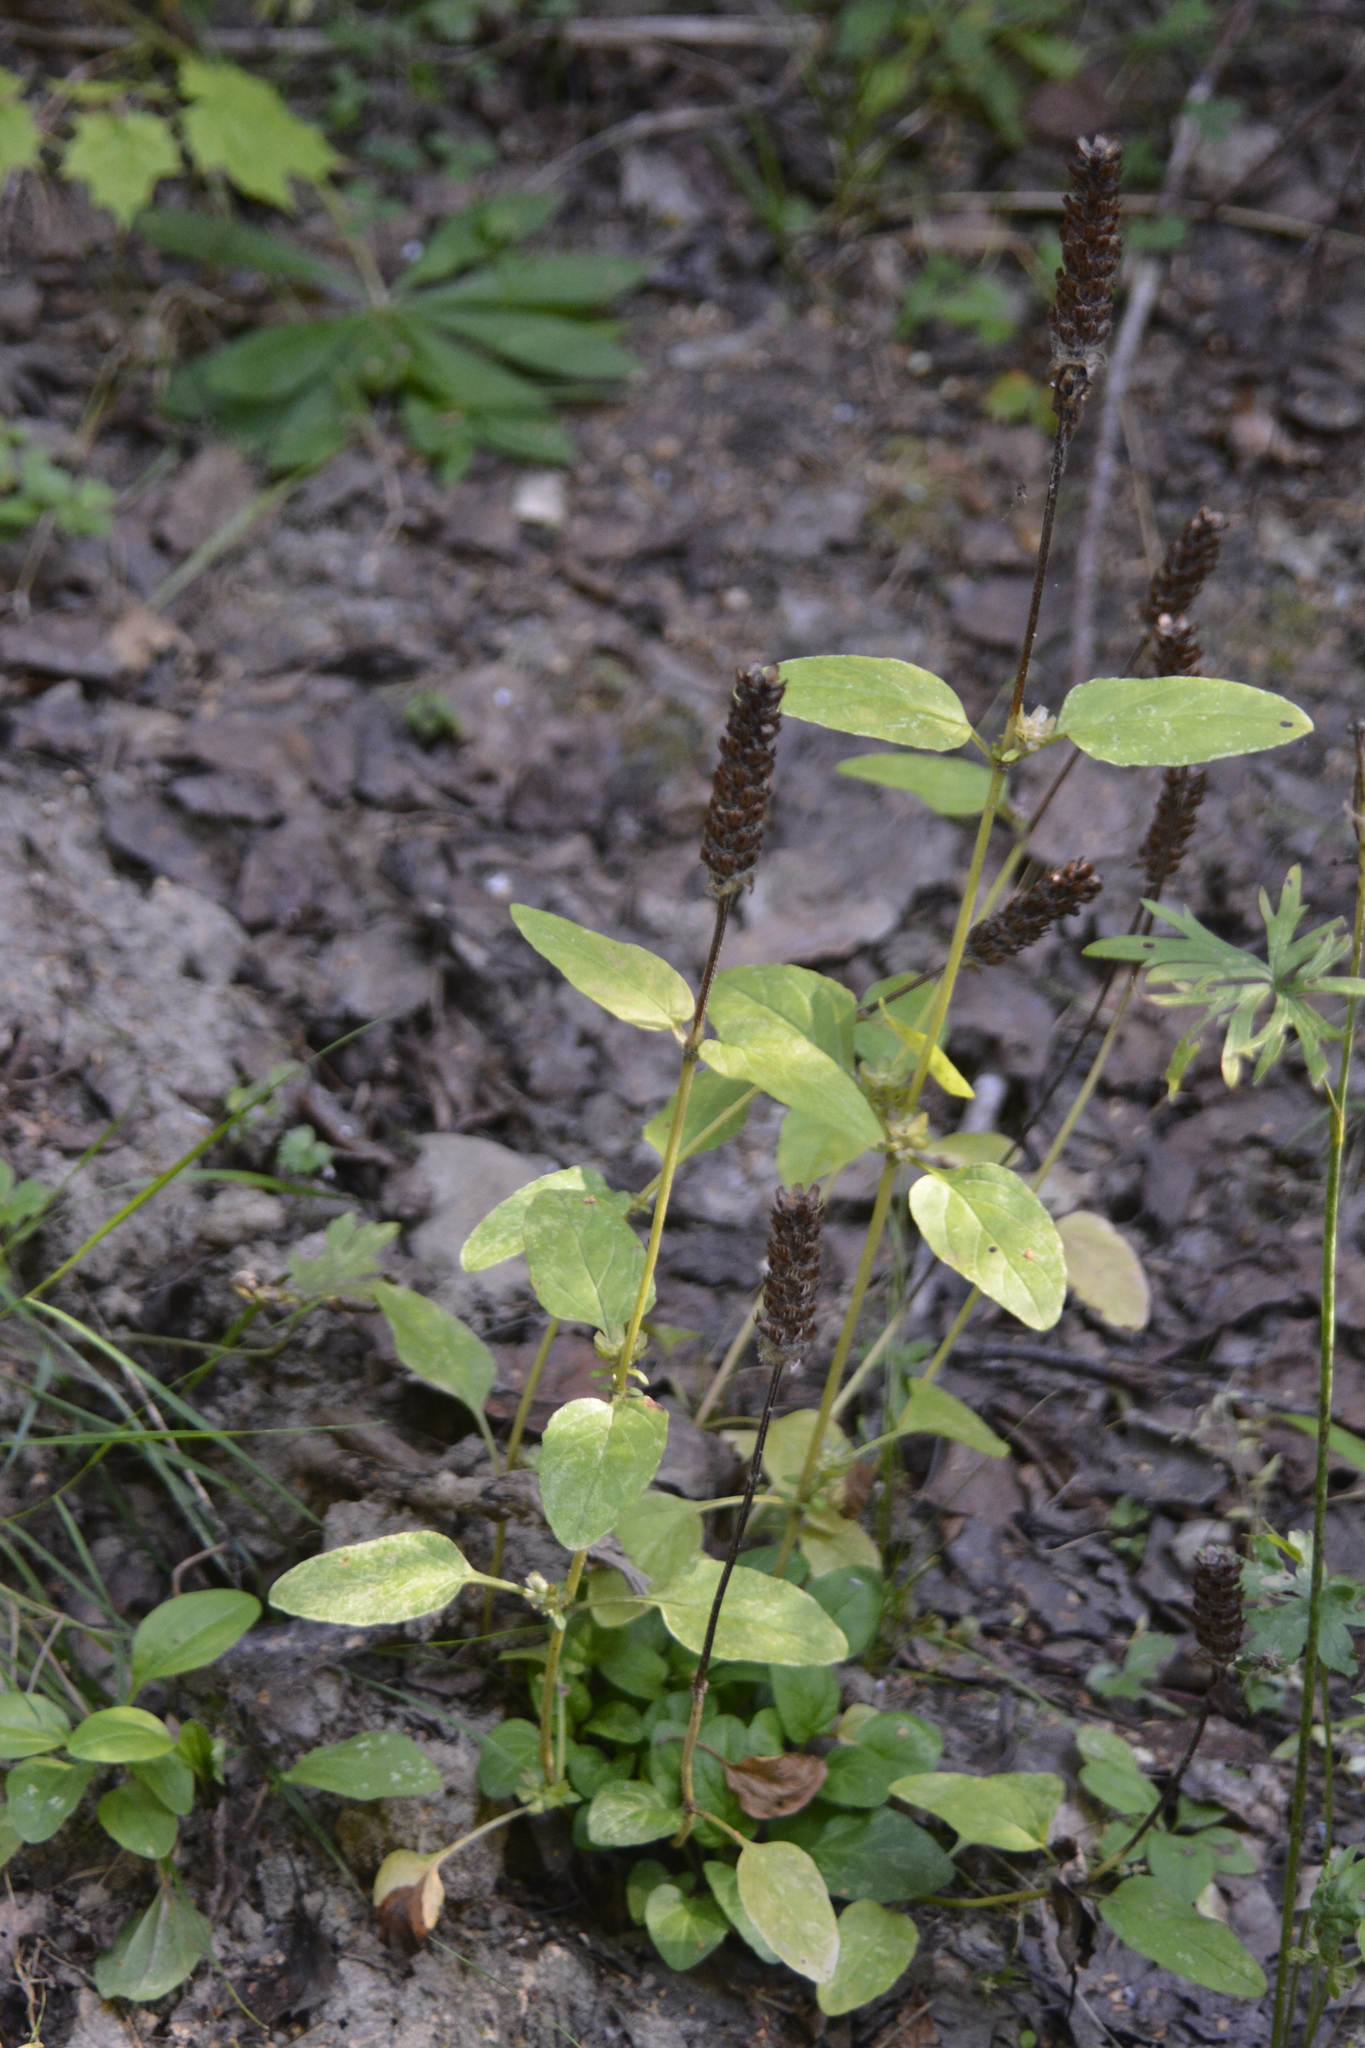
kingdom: Plantae
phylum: Tracheophyta
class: Magnoliopsida
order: Lamiales
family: Lamiaceae
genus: Prunella
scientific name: Prunella vulgaris
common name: Heal-all
